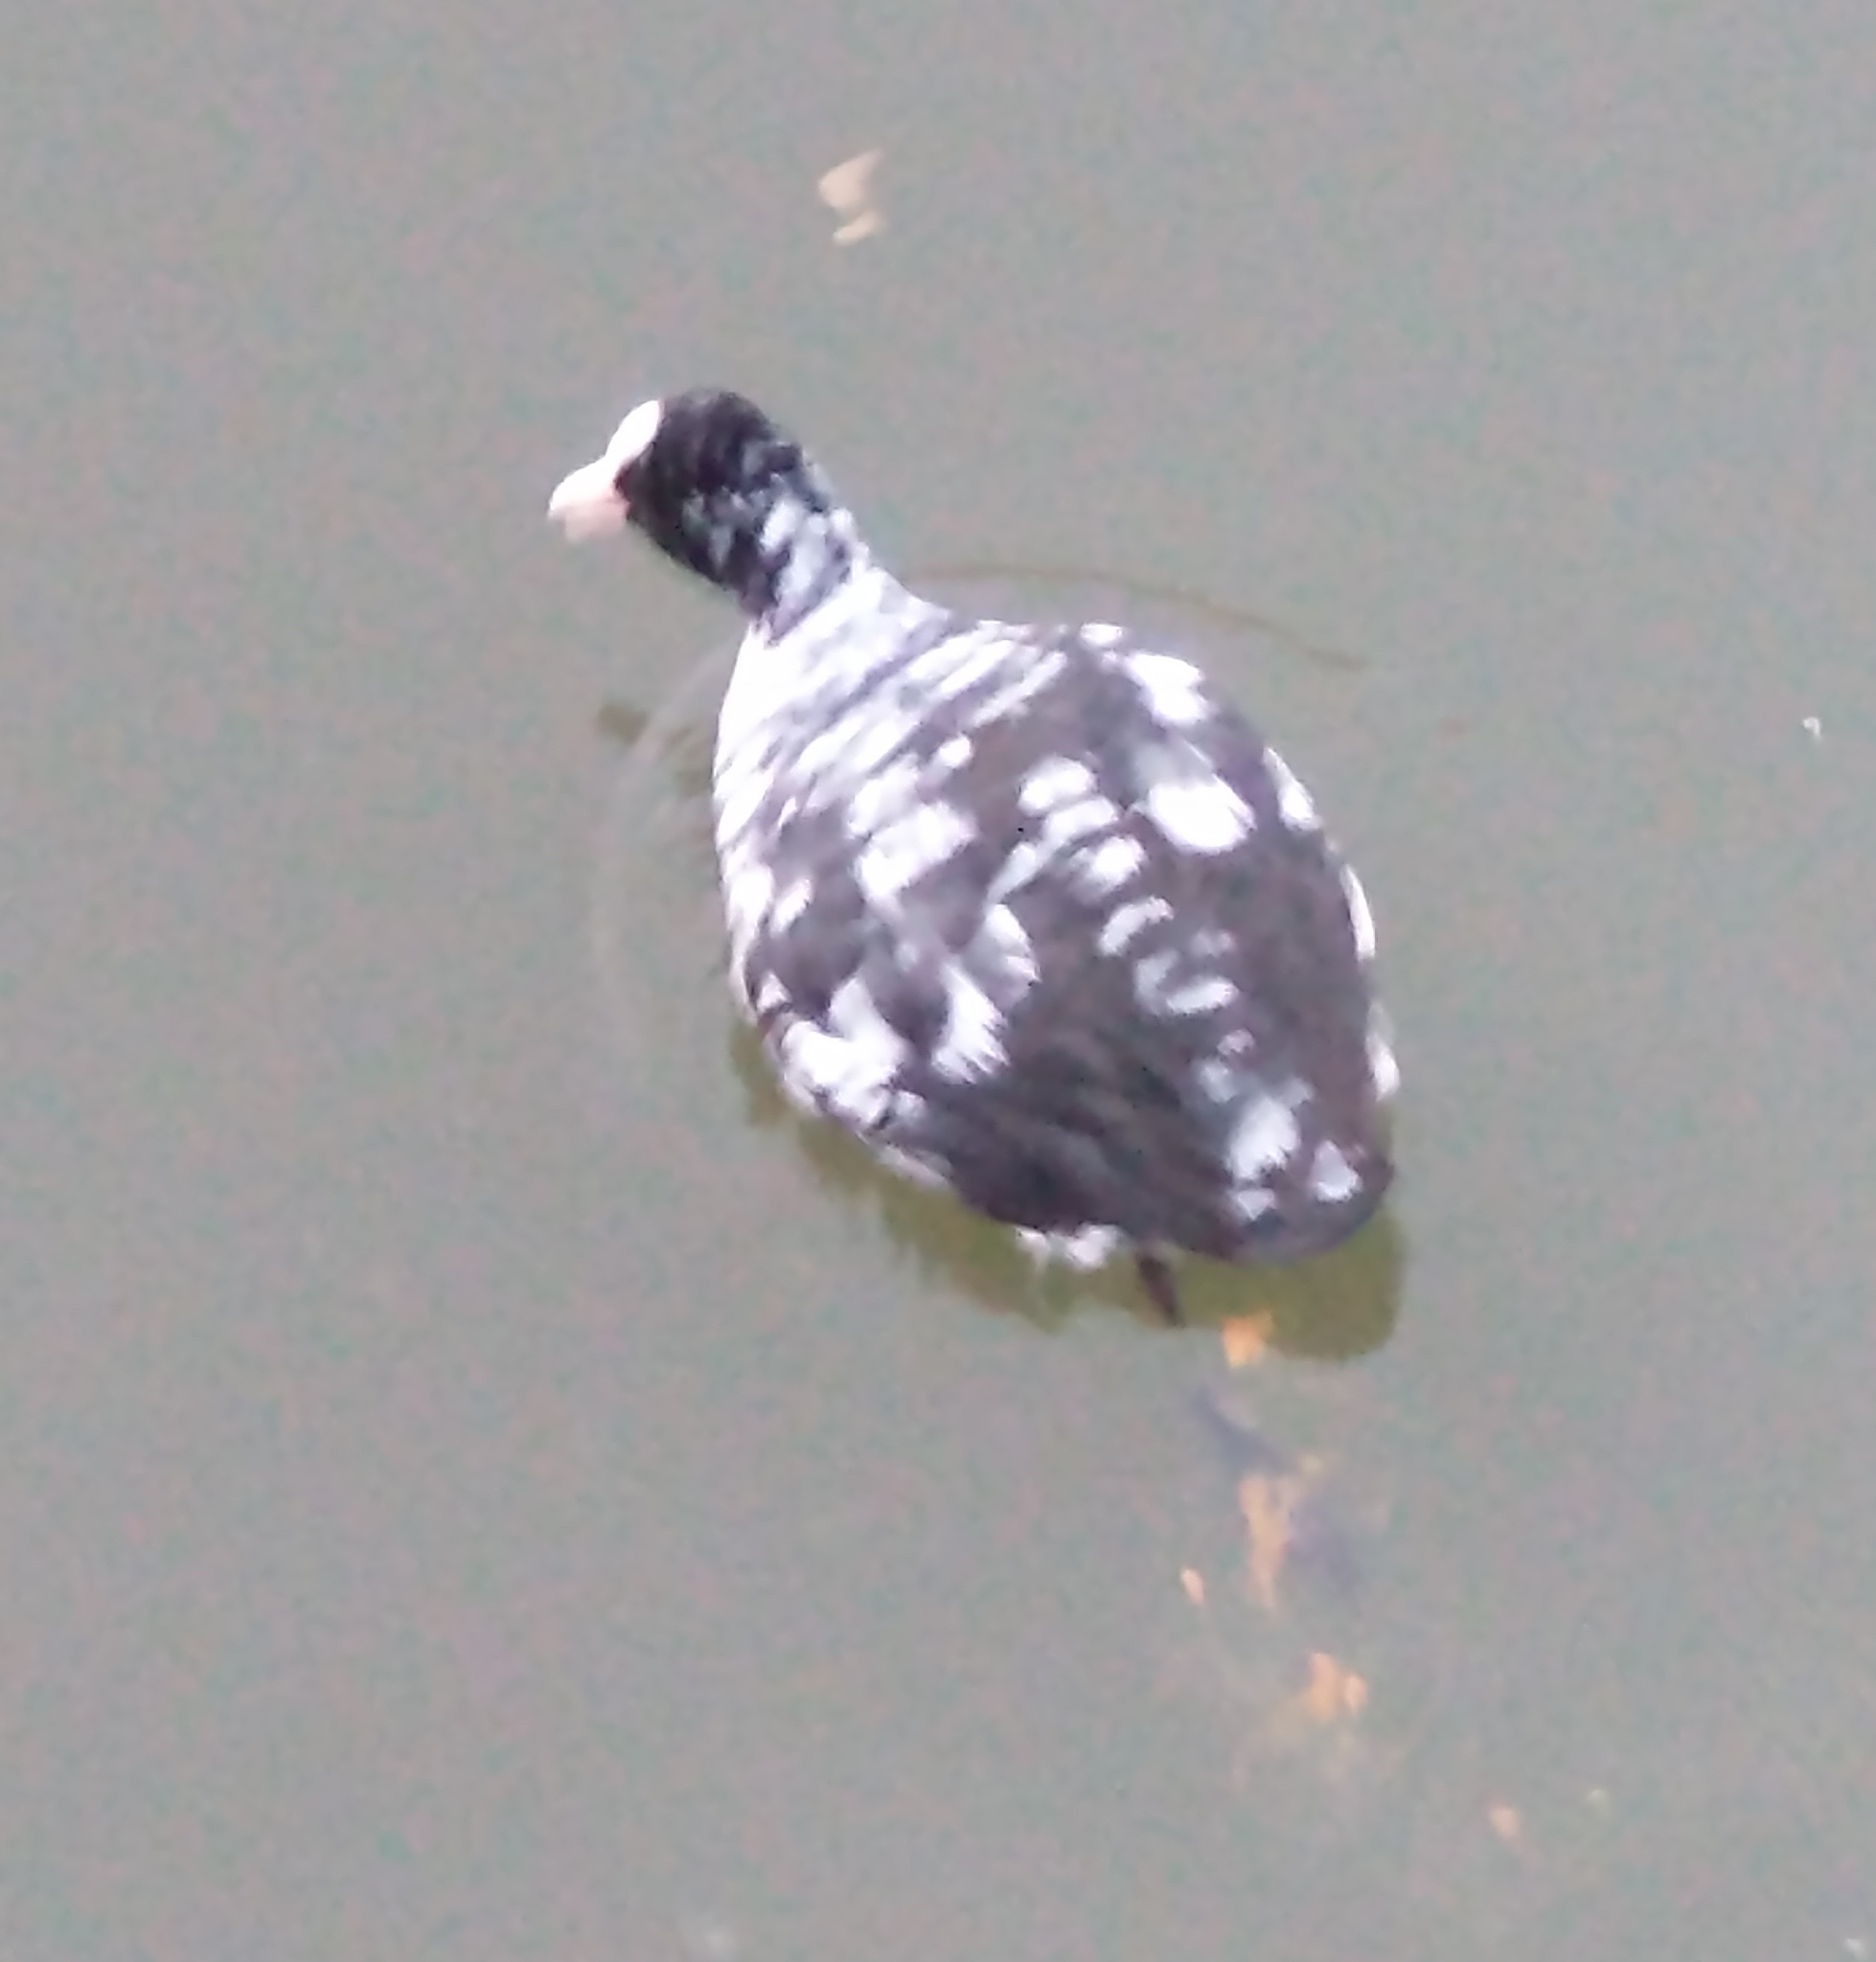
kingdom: Animalia
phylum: Chordata
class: Aves
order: Gruiformes
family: Rallidae
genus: Fulica
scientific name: Fulica atra
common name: Eurasian coot
